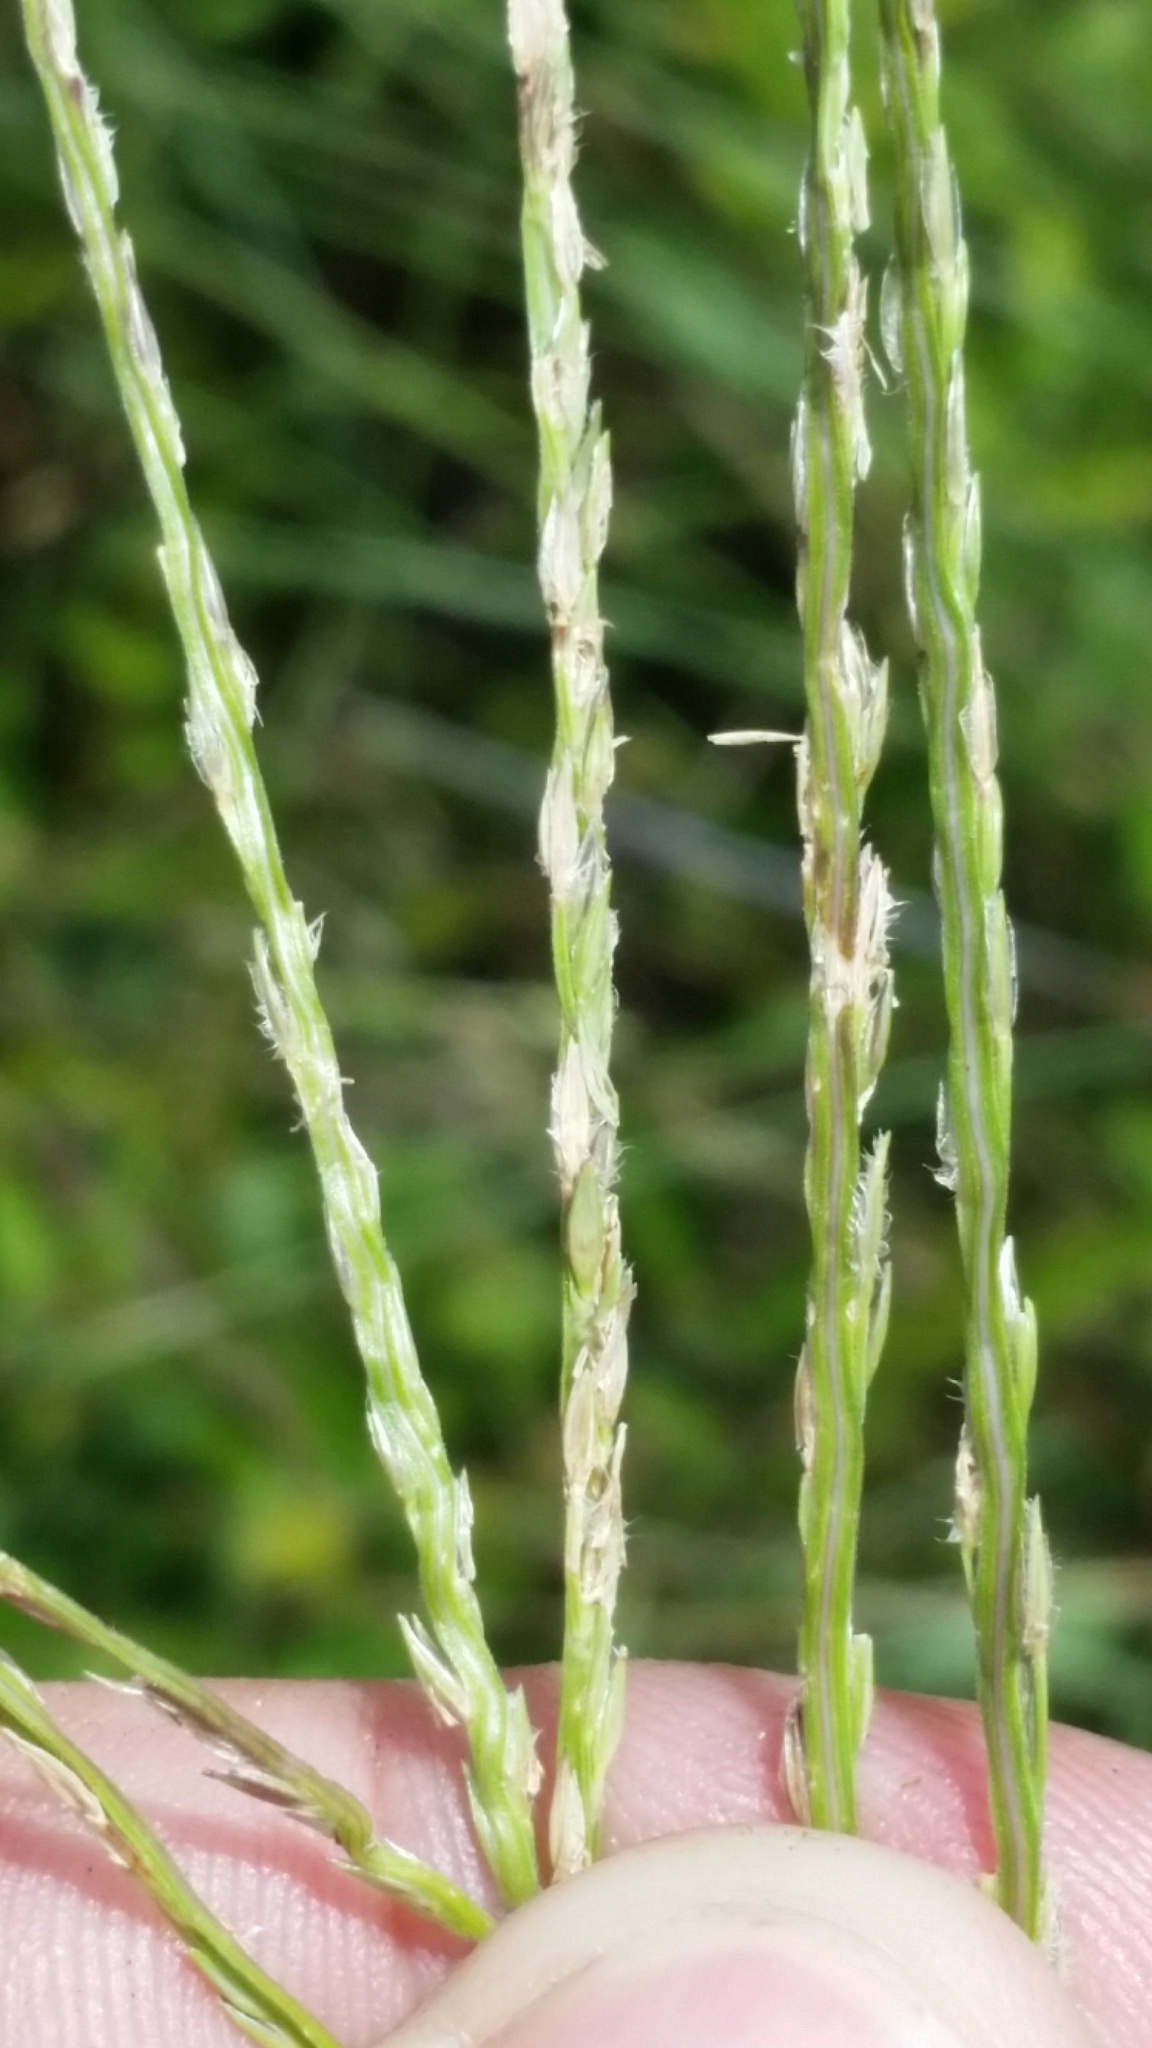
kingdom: Plantae
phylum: Tracheophyta
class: Liliopsida
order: Poales
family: Poaceae
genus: Digitaria
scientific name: Digitaria ciliaris
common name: Tropical finger-grass
